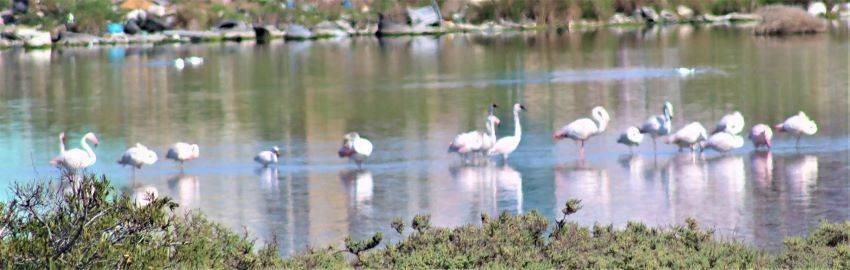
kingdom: Animalia
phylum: Chordata
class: Aves
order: Phoenicopteriformes
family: Phoenicopteridae
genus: Phoenicopterus
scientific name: Phoenicopterus roseus
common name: Greater flamingo
